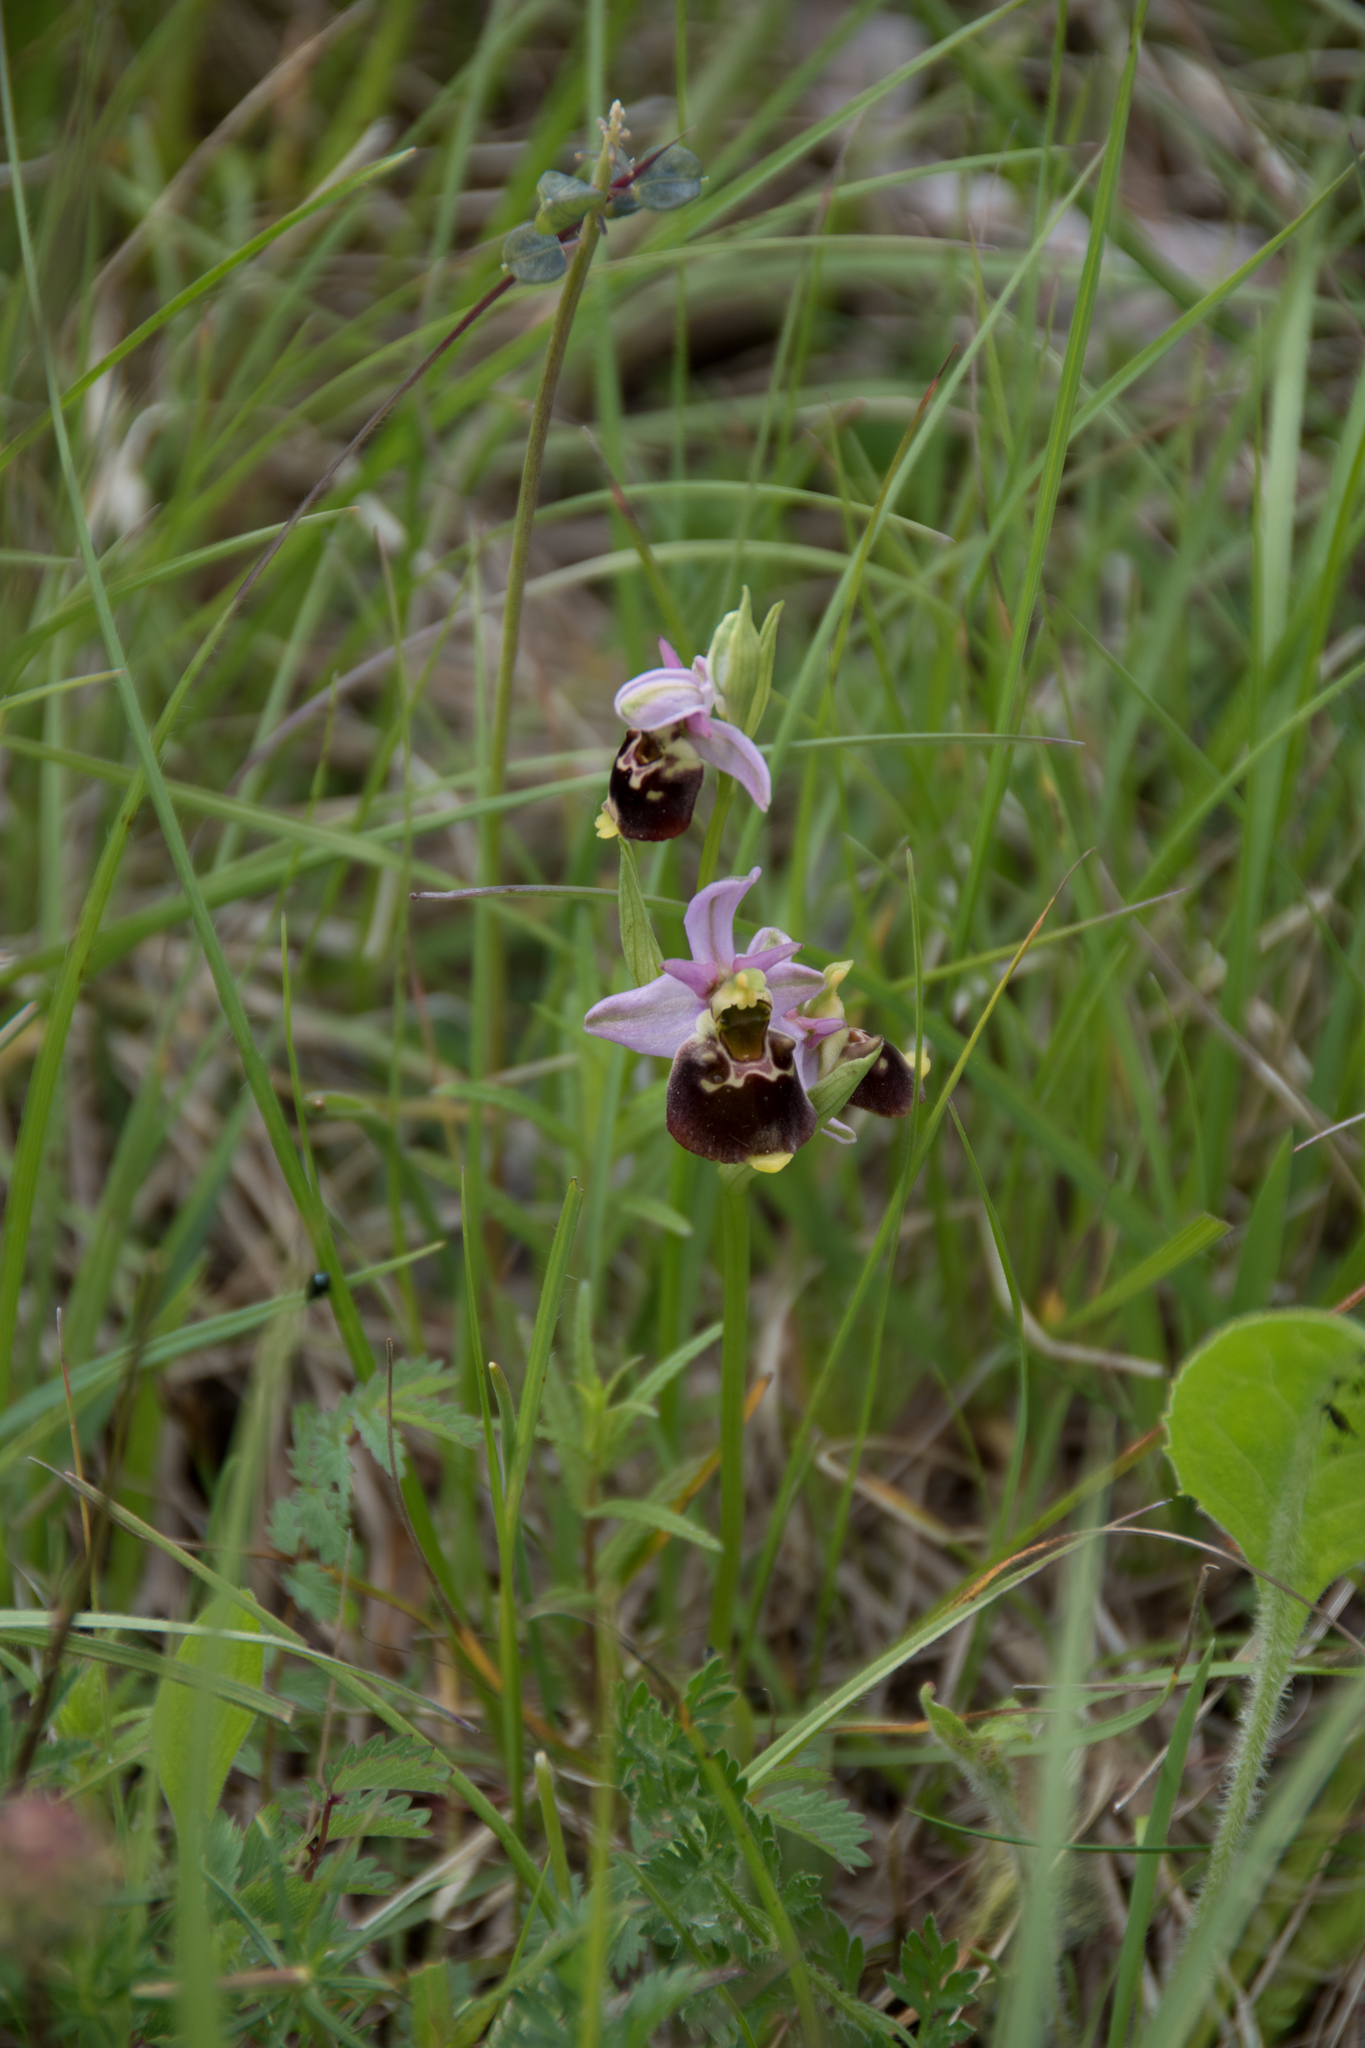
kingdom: Plantae
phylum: Tracheophyta
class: Liliopsida
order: Asparagales
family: Orchidaceae
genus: Ophrys
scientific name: Ophrys holosericea
